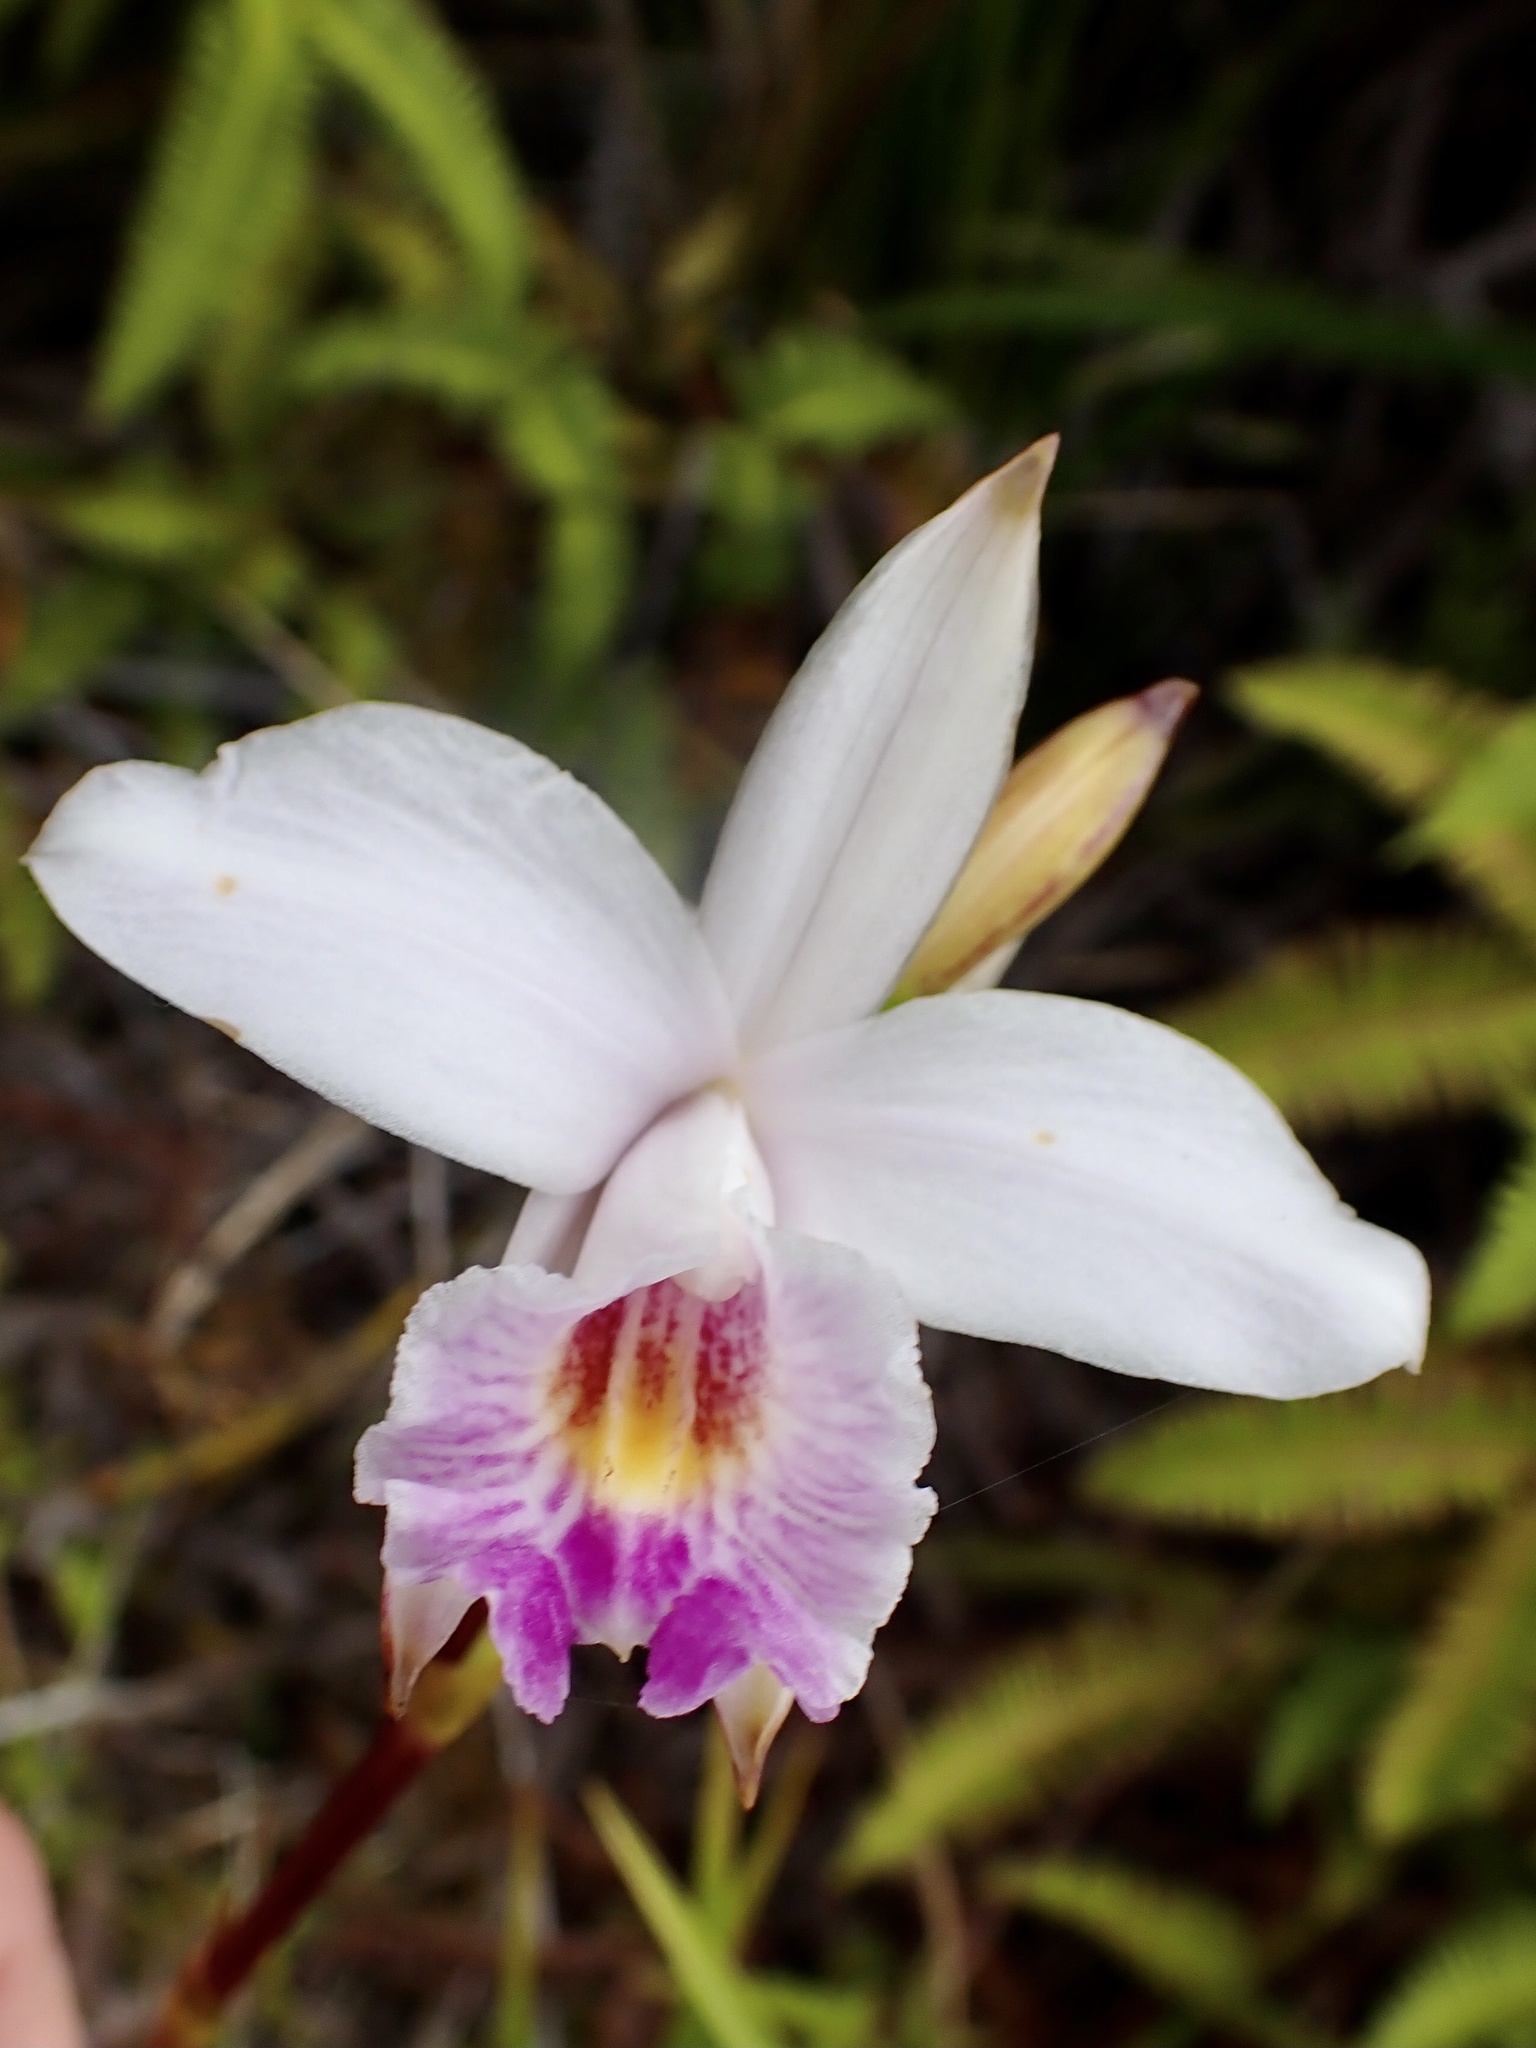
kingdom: Plantae
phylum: Tracheophyta
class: Liliopsida
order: Asparagales
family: Orchidaceae
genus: Arundina
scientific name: Arundina graminifolia
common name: Bamboo orchid
